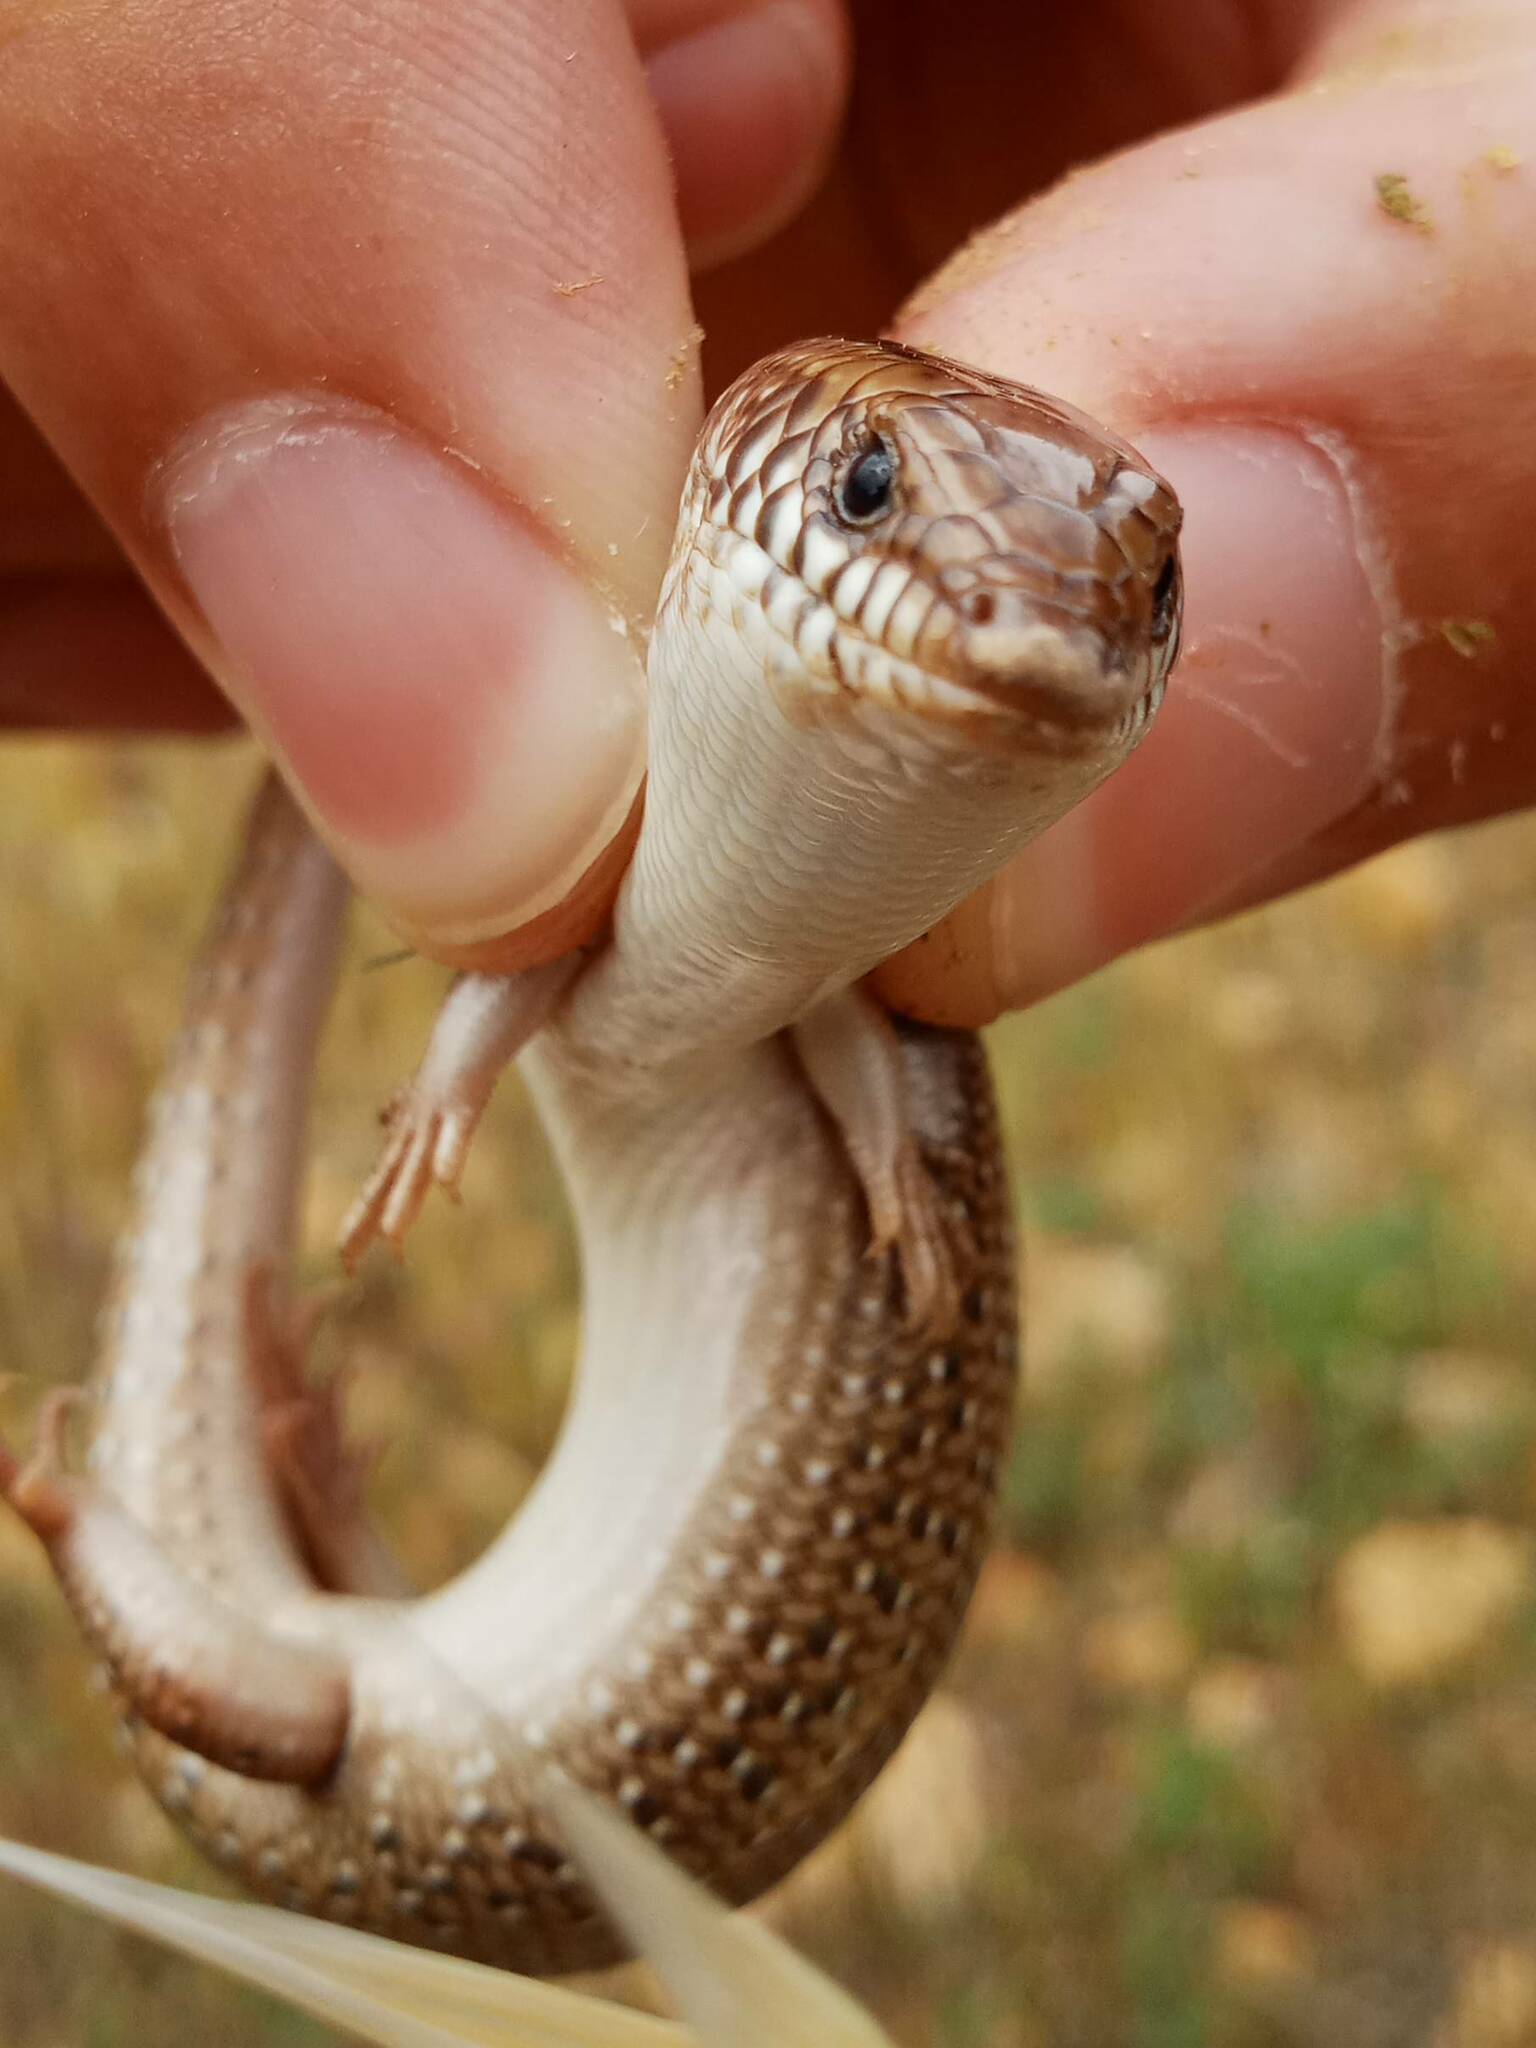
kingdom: Animalia
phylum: Chordata
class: Squamata
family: Scincidae
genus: Chalcides
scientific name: Chalcides ocellatus
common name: Ocellated skink
